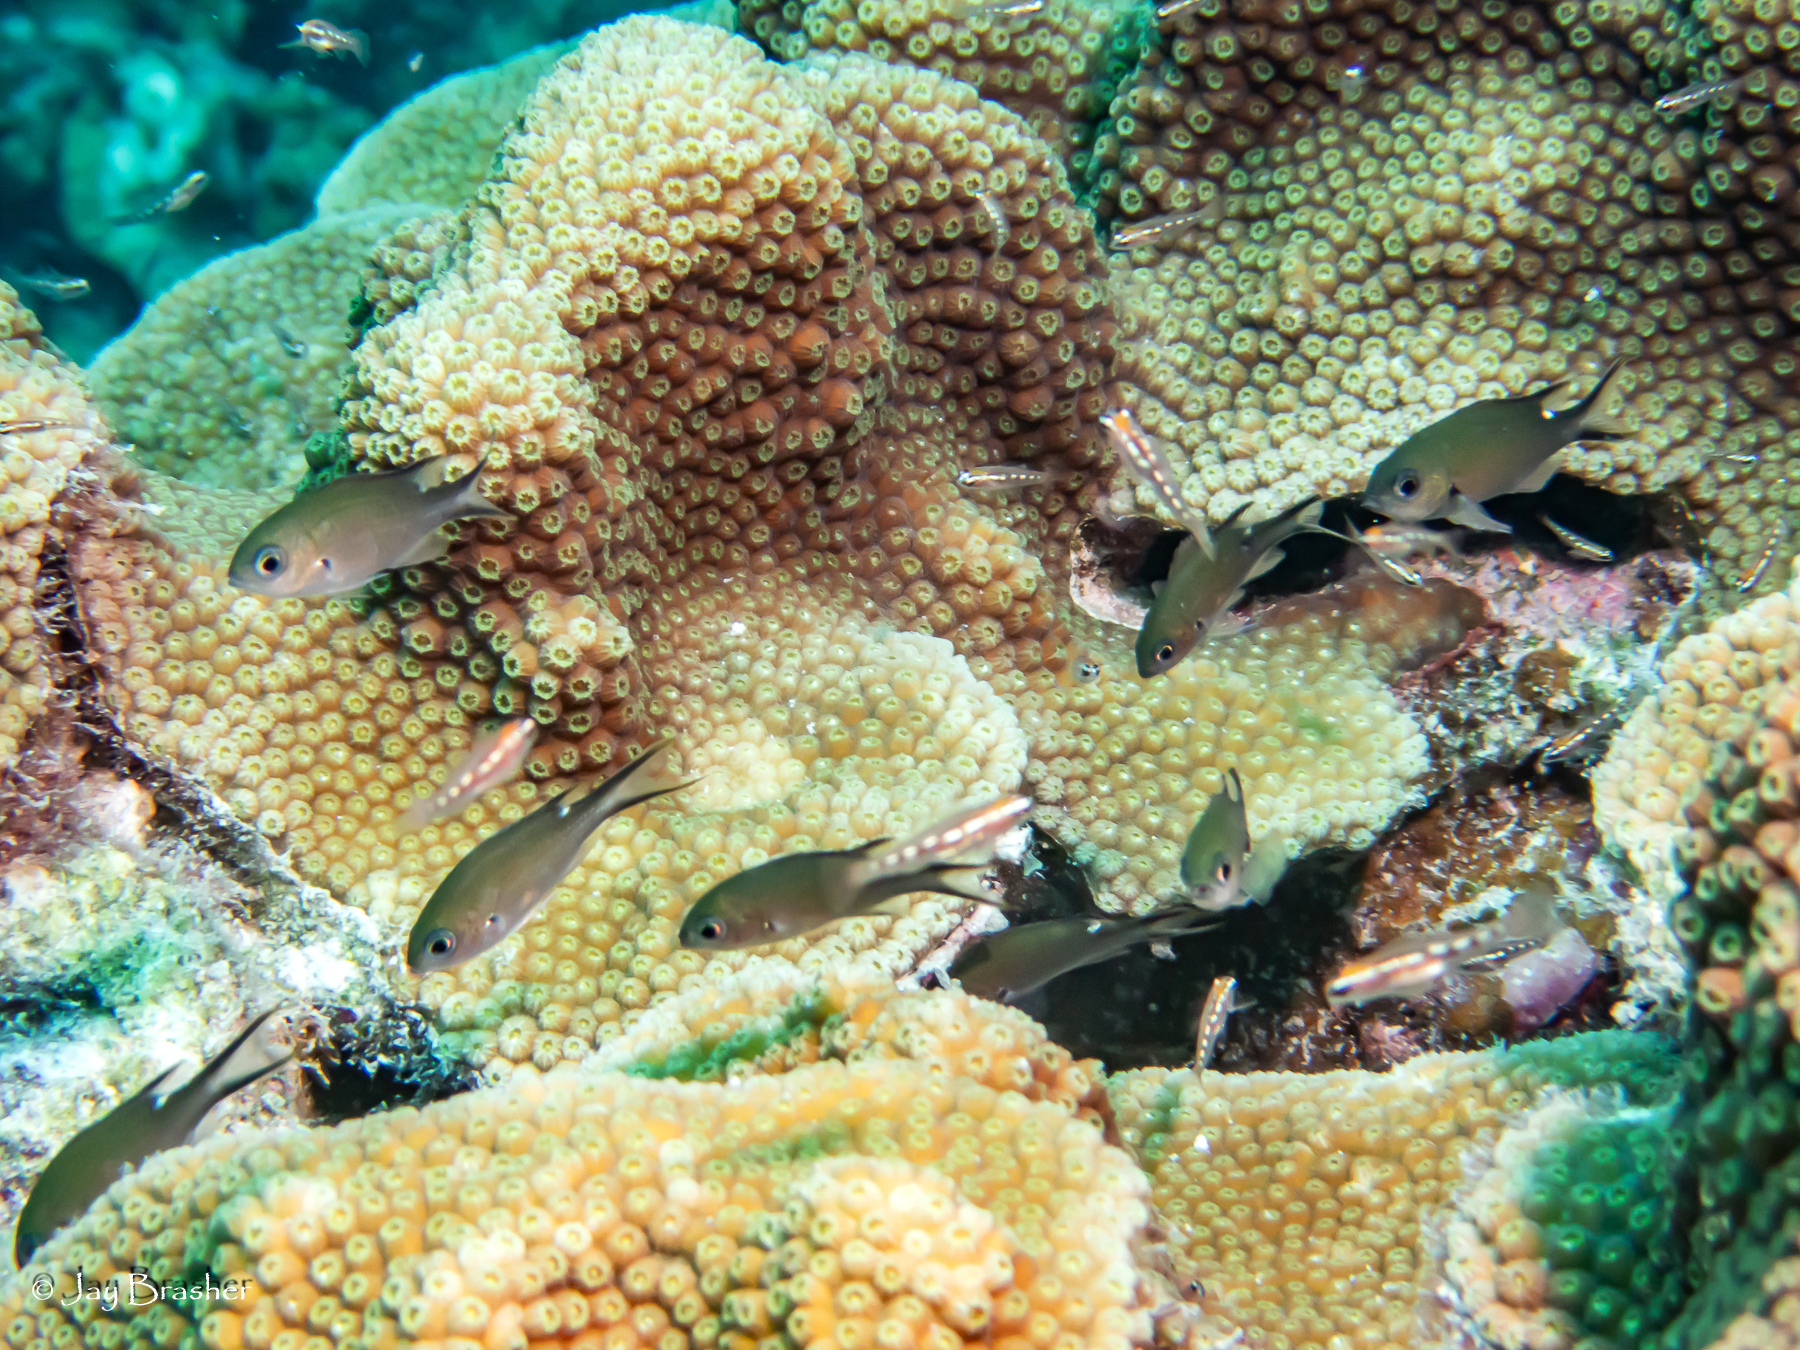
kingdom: Animalia
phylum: Chordata
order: Perciformes
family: Pomacentridae
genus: Chromis
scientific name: Chromis multilineata
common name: Brown chromis
